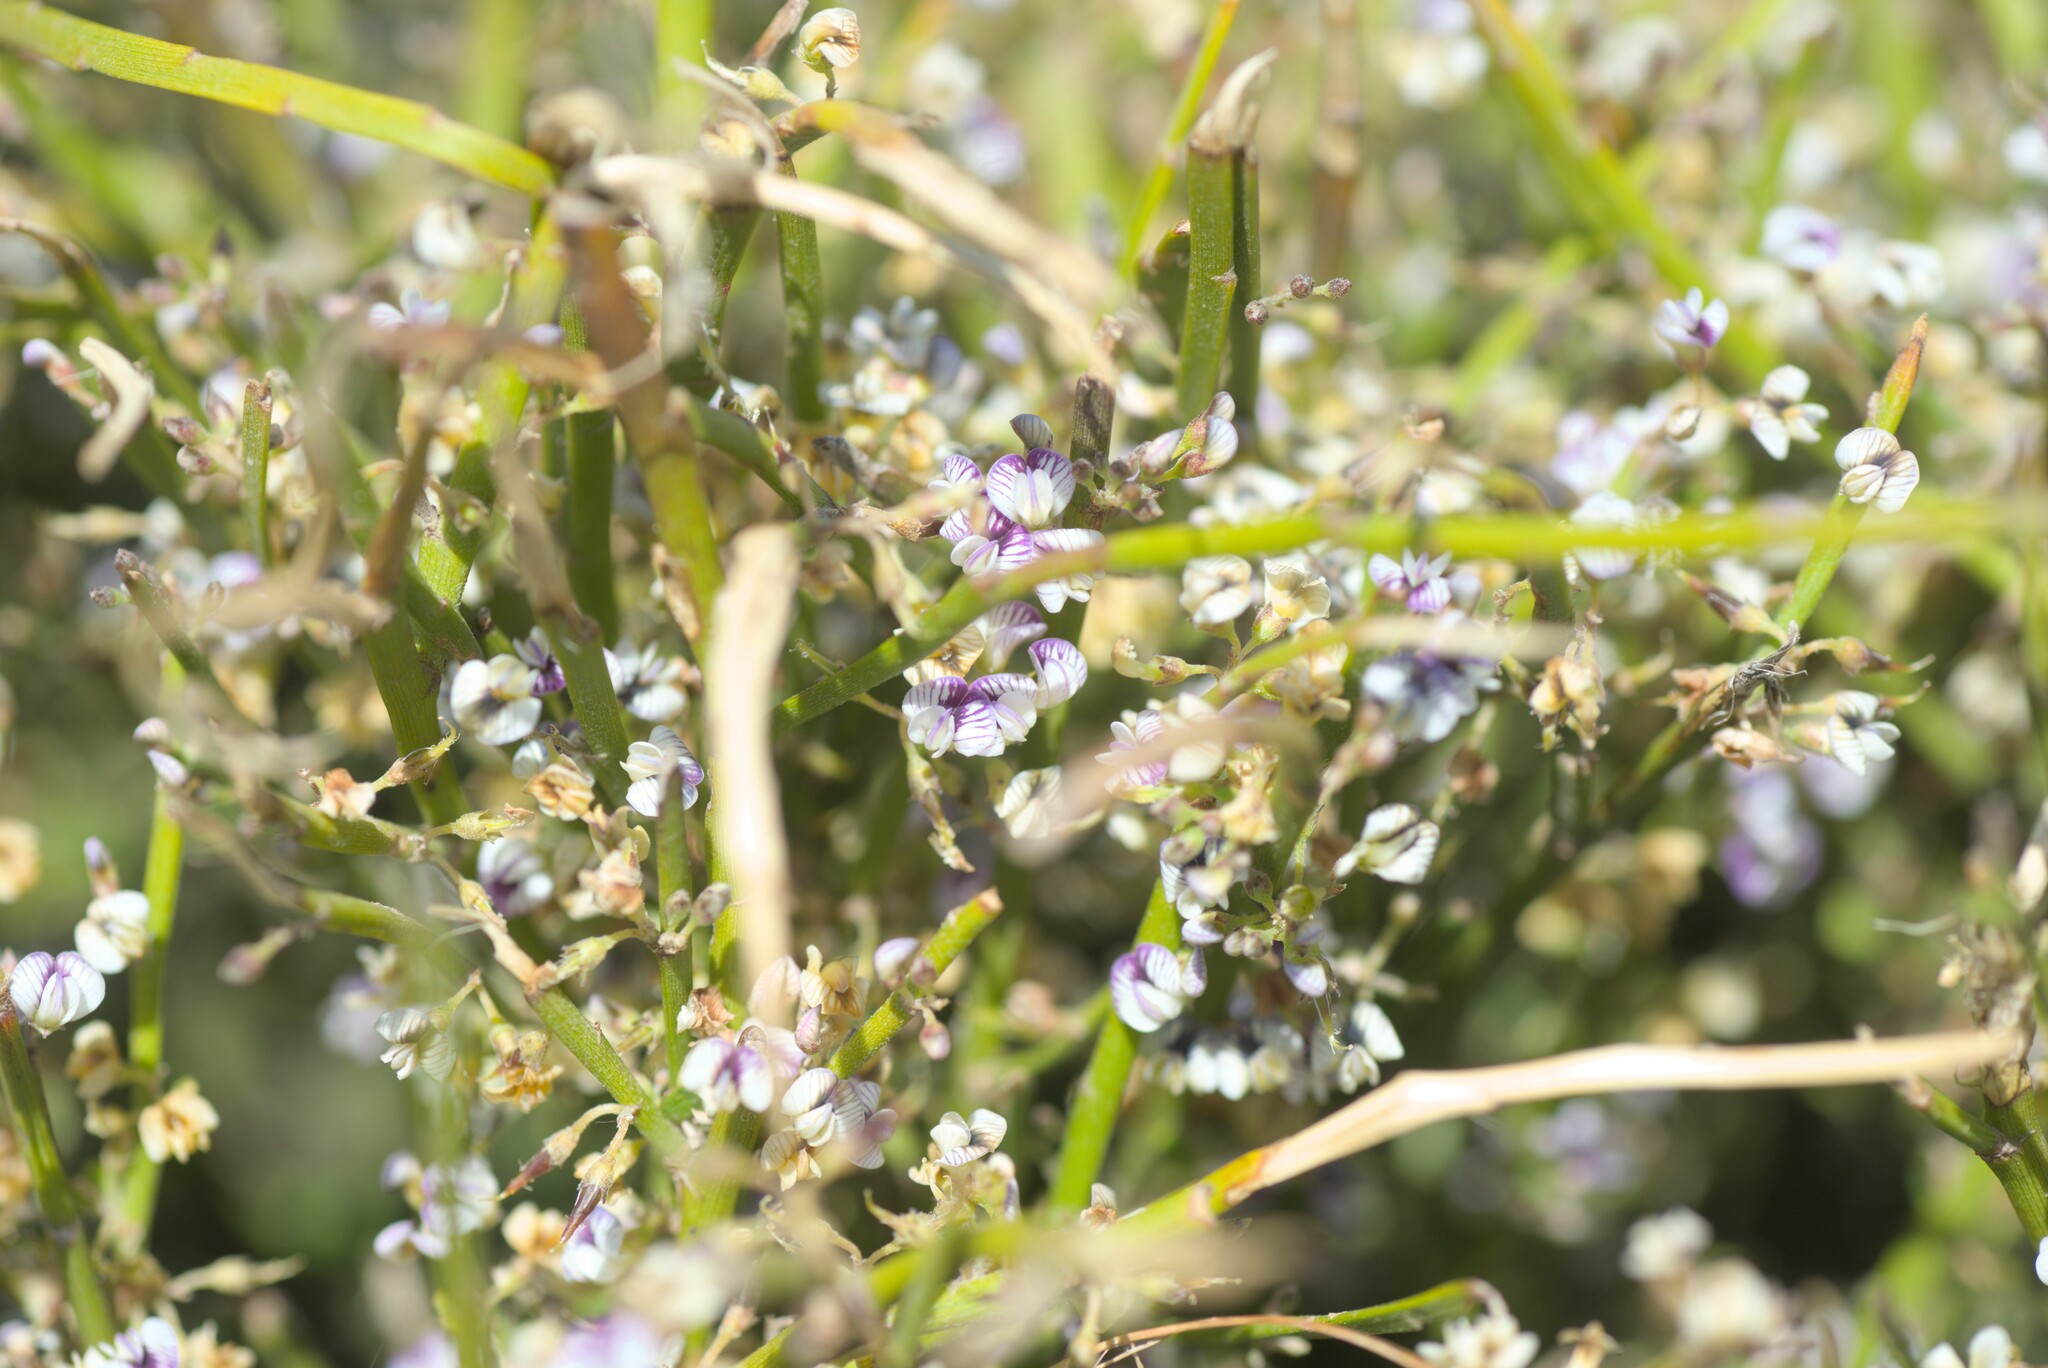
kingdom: Plantae
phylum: Tracheophyta
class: Magnoliopsida
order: Fabales
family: Fabaceae
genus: Carmichaelia
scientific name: Carmichaelia australis
